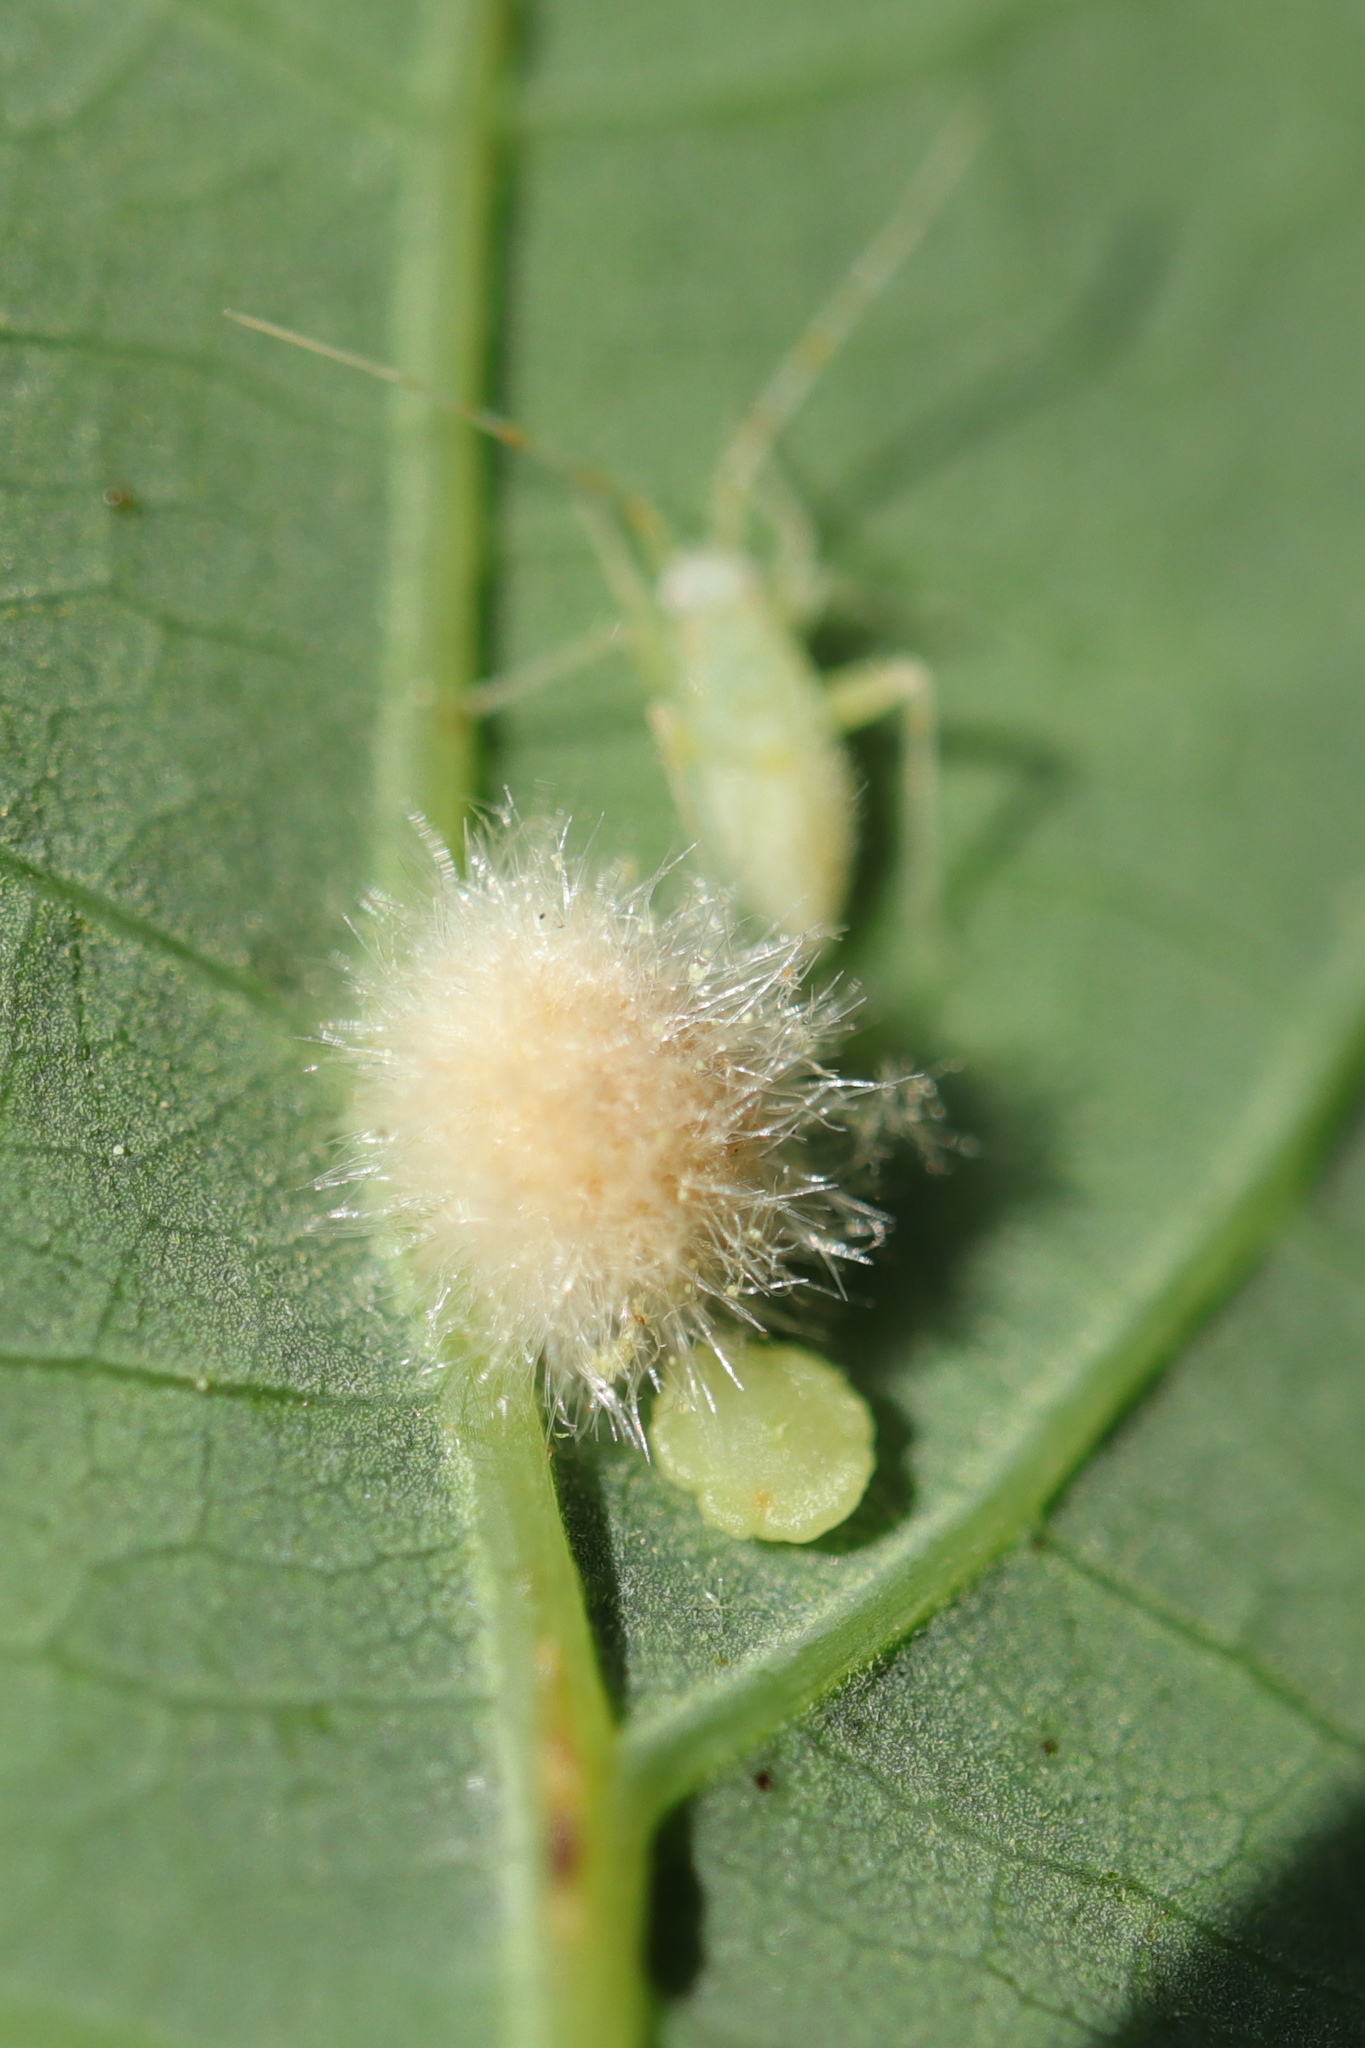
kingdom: Animalia
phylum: Arthropoda
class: Insecta
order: Hymenoptera
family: Cynipidae
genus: Philonix
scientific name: Philonix fulvicollis
